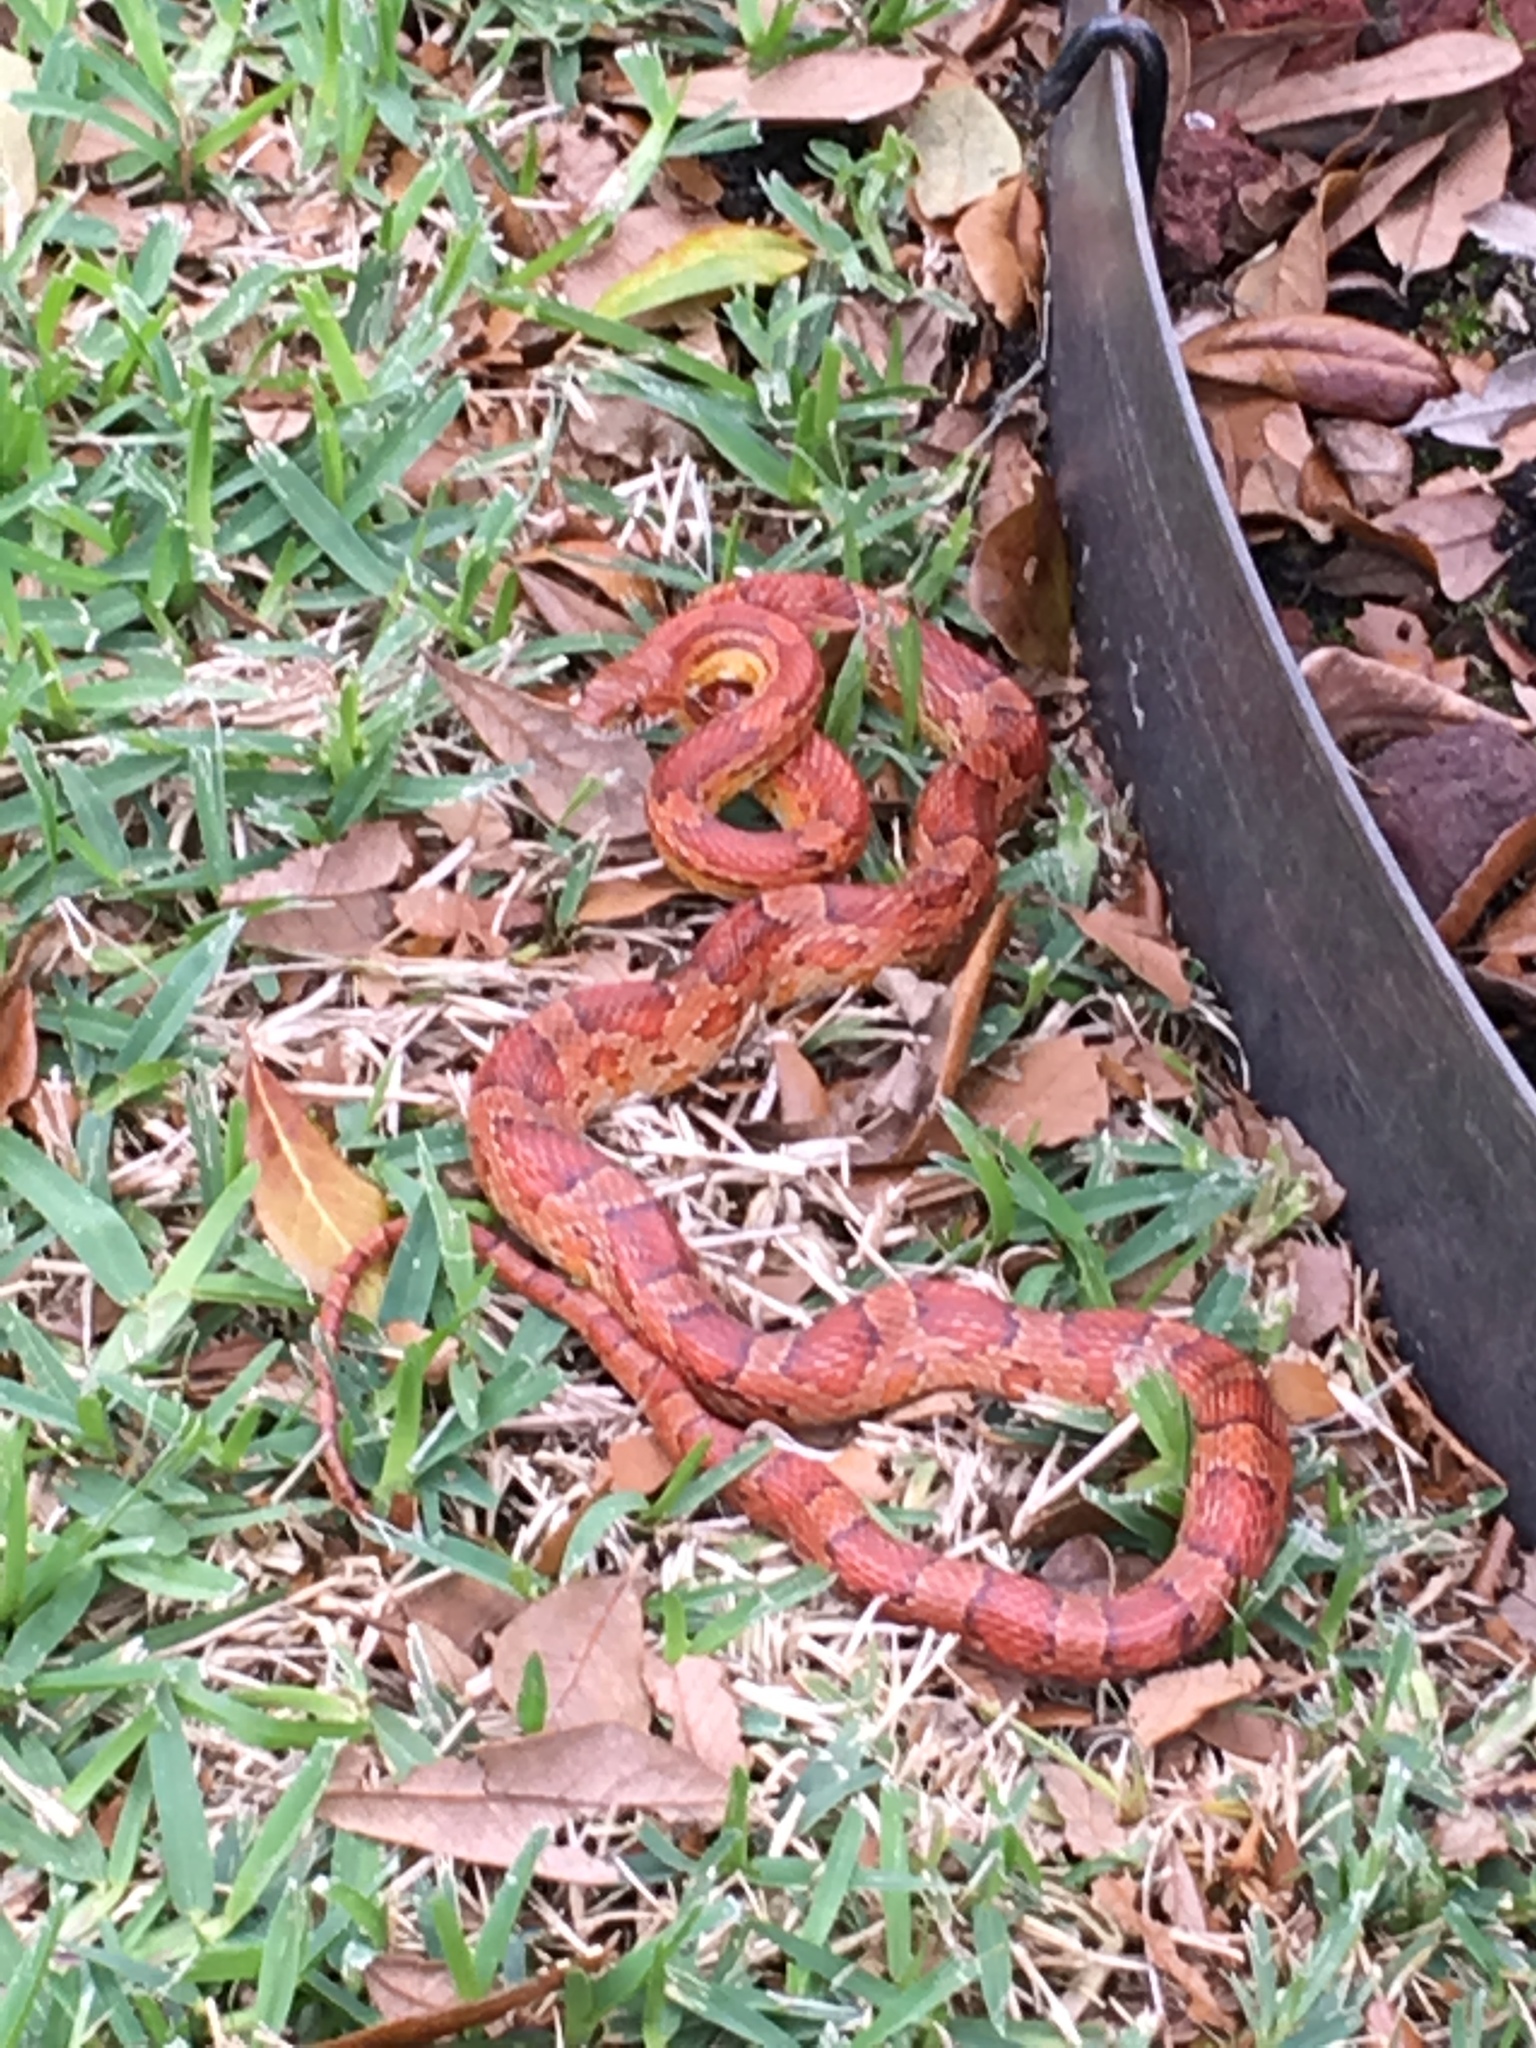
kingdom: Animalia
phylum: Chordata
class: Squamata
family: Colubridae
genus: Pantherophis
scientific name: Pantherophis guttatus
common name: Red cornsnake
